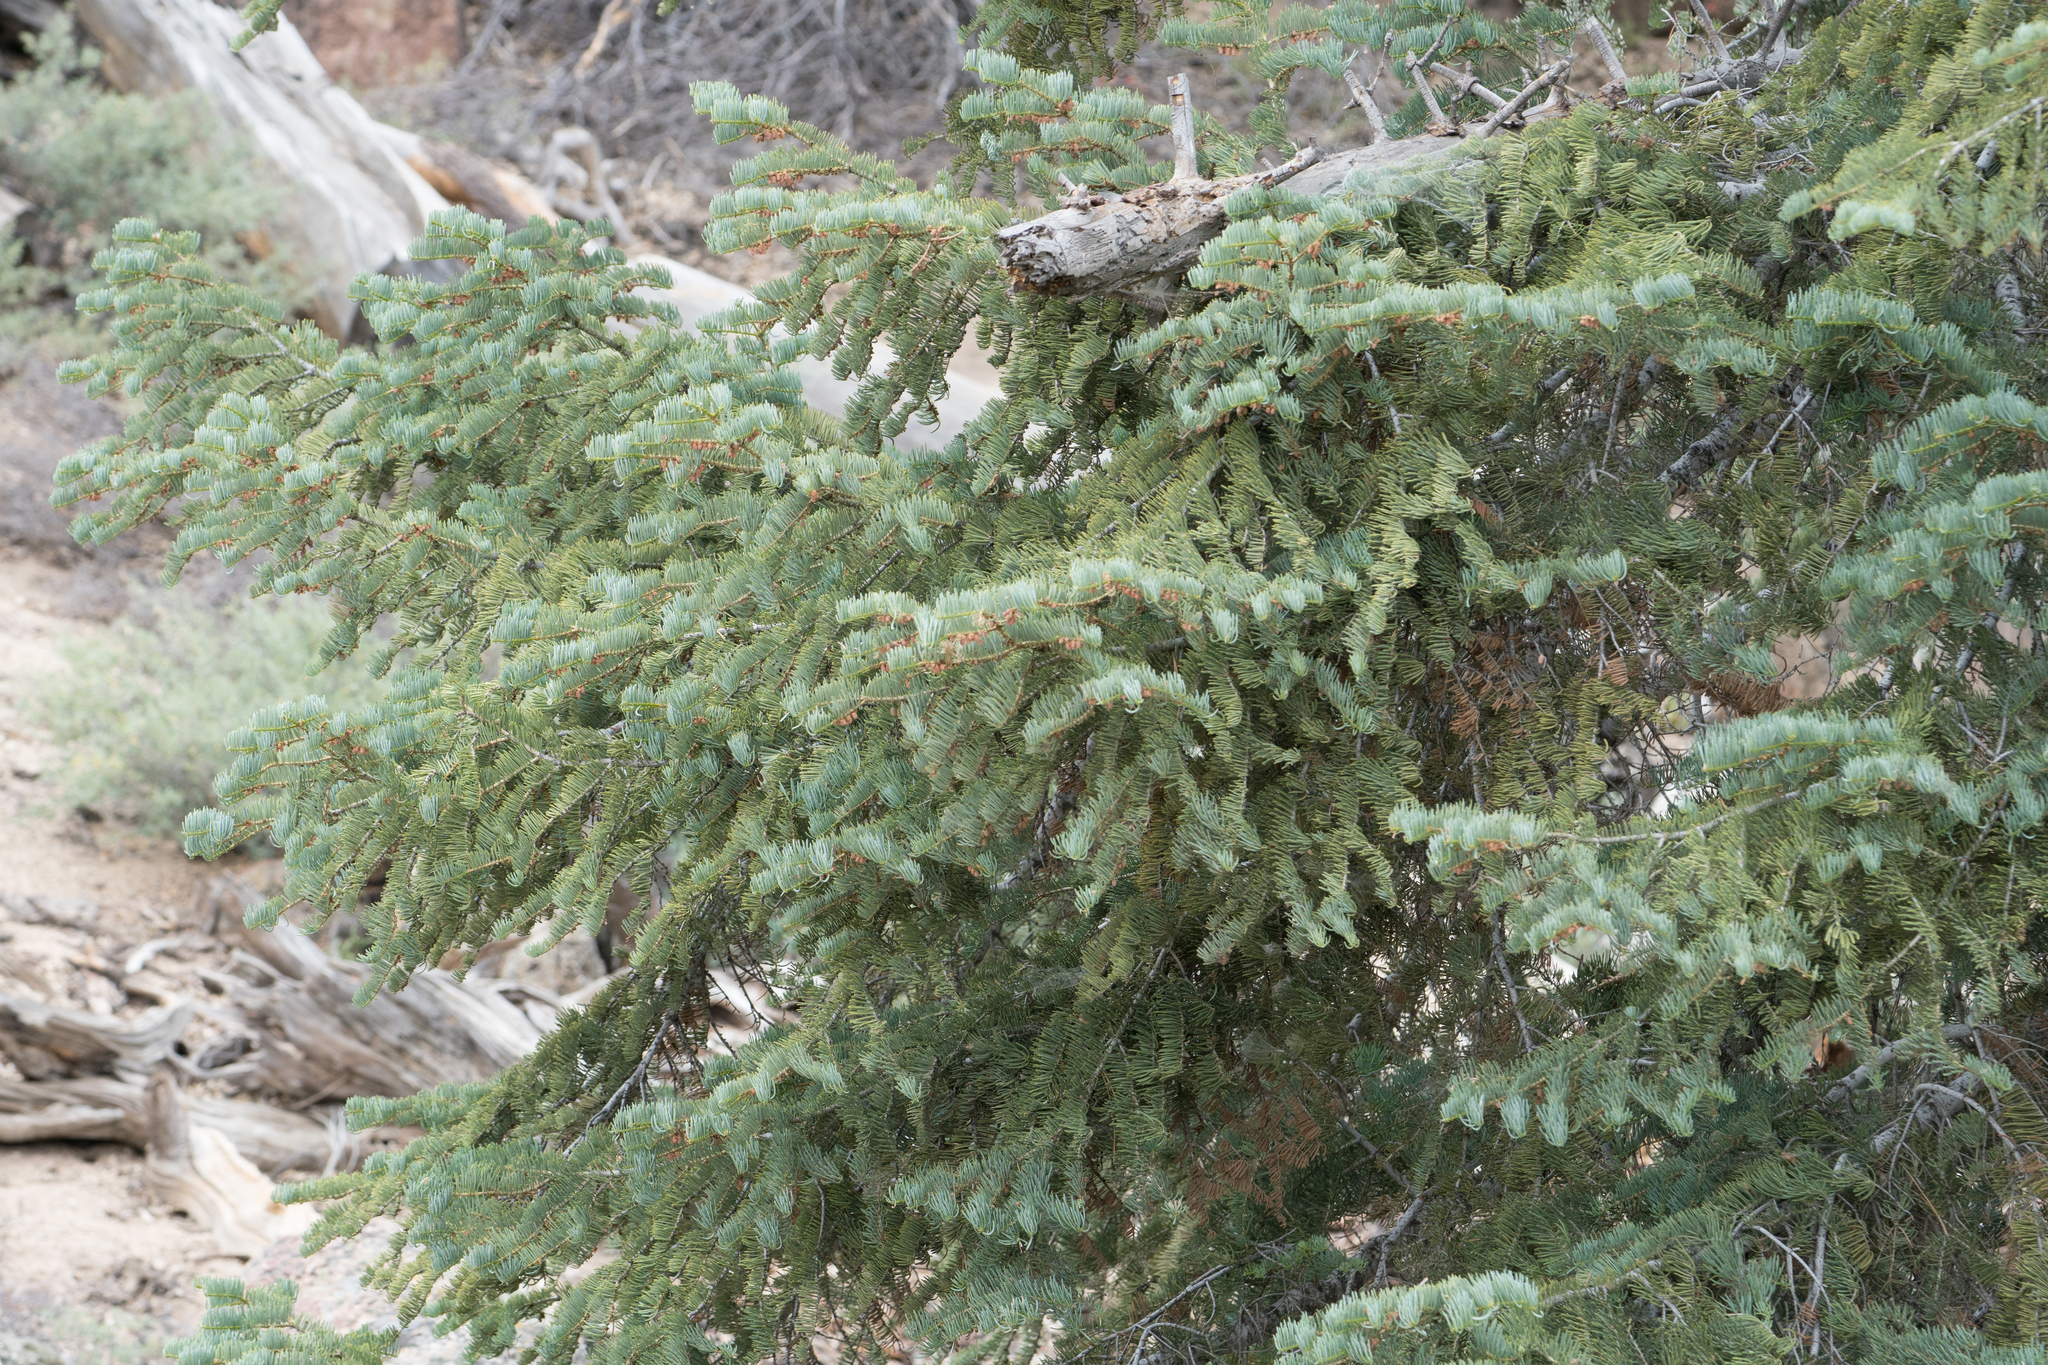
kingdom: Plantae
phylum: Tracheophyta
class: Pinopsida
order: Pinales
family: Pinaceae
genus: Abies
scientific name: Abies concolor
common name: Colorado fir
